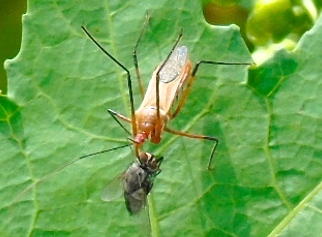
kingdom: Animalia
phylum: Arthropoda
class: Insecta
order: Hemiptera
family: Reduviidae
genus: Zelus
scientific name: Zelus grassans
